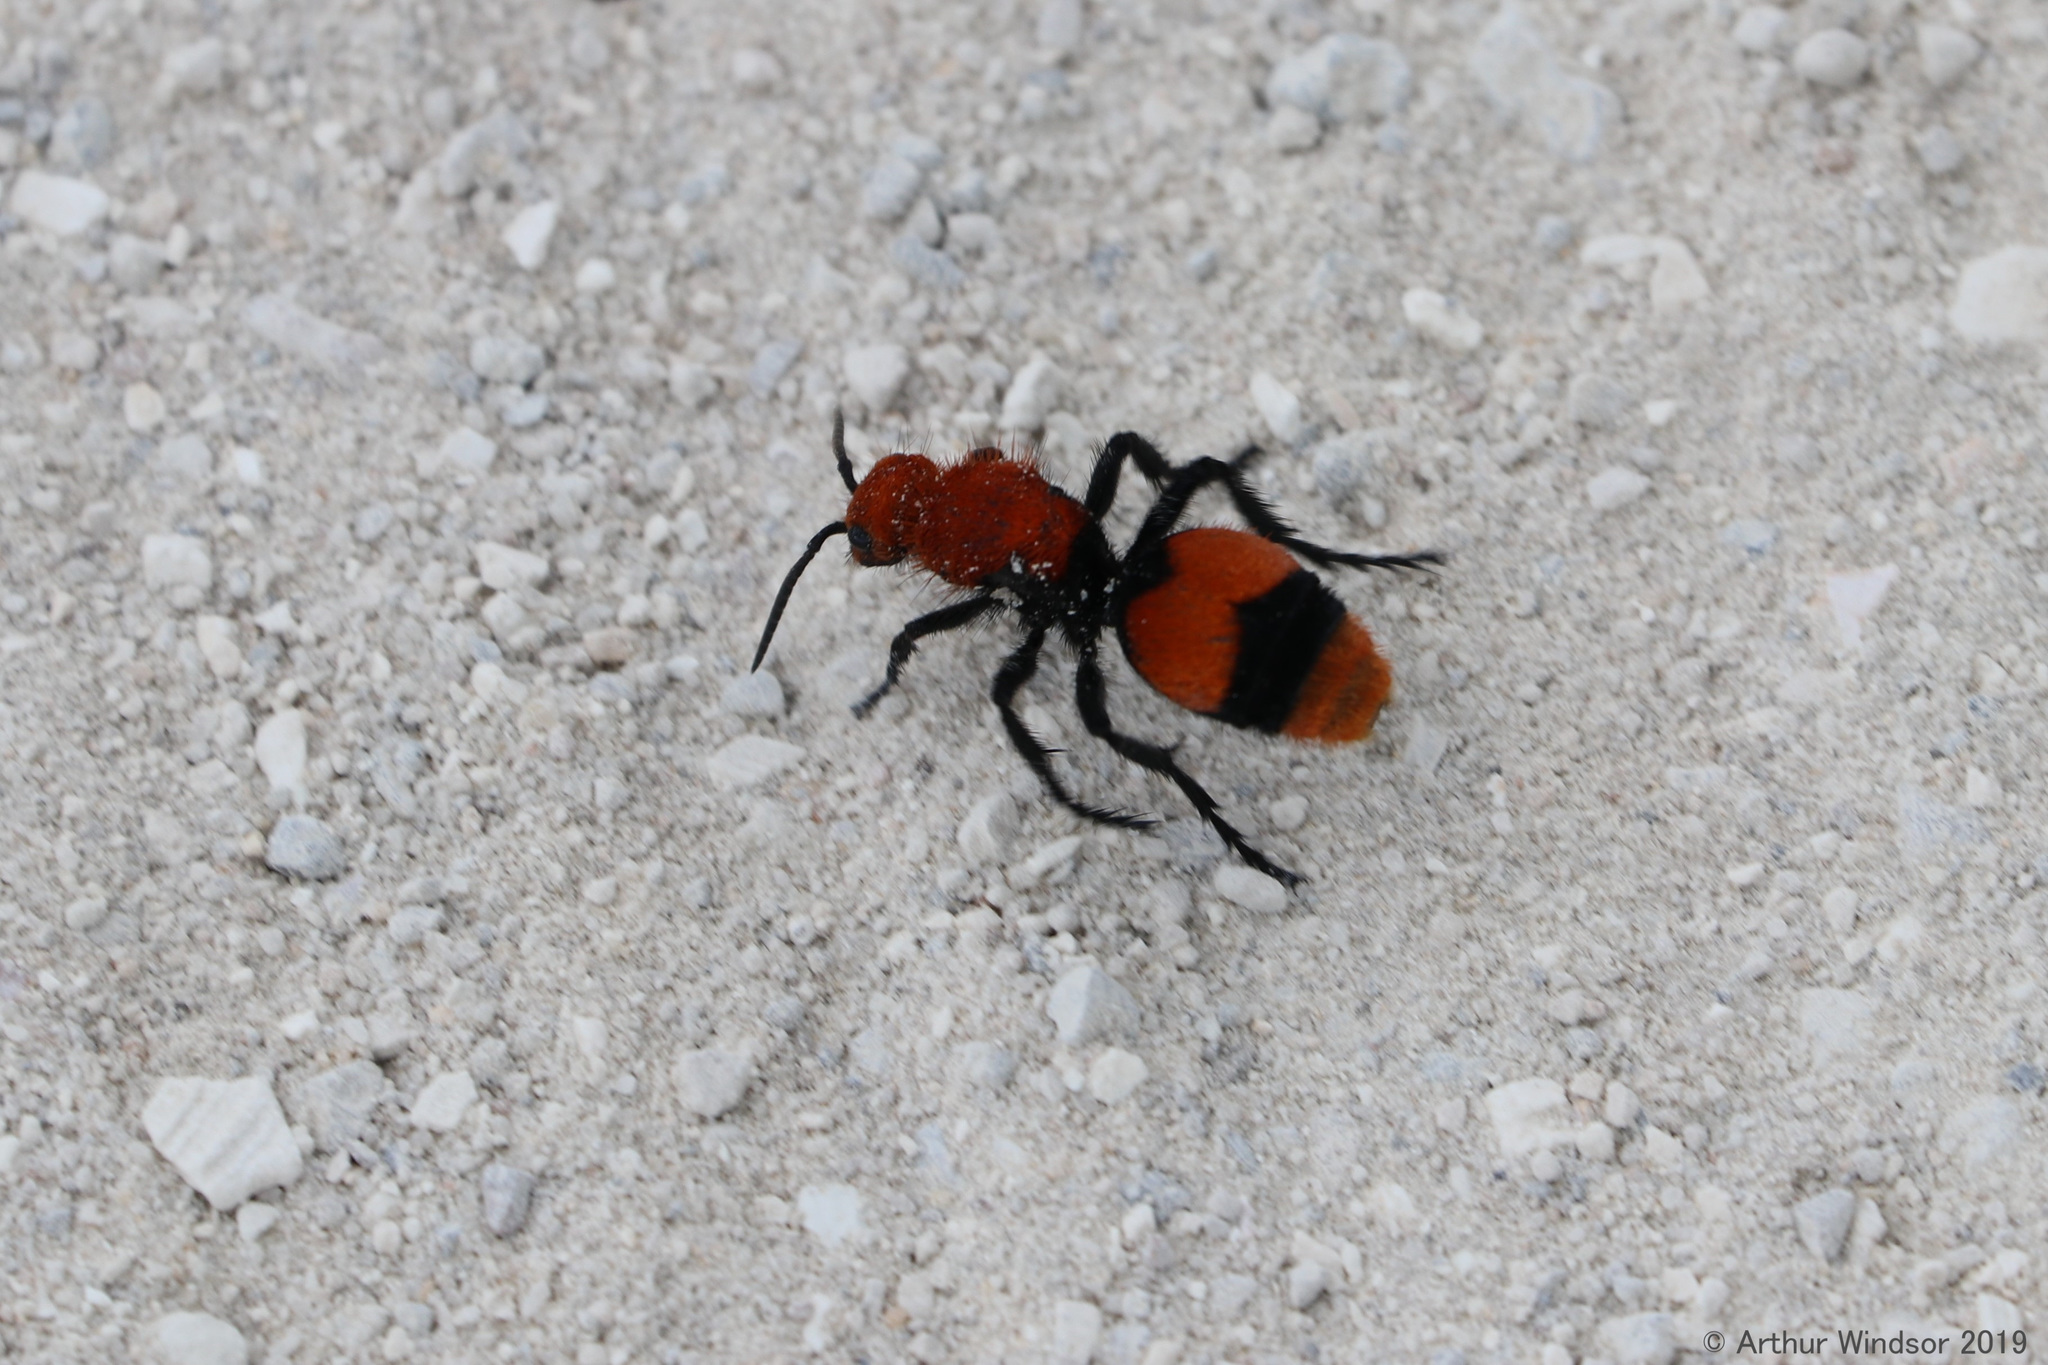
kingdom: Animalia
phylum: Arthropoda
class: Insecta
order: Hymenoptera
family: Mutillidae
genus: Dasymutilla
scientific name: Dasymutilla occidentalis
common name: Common eastern velvet ant
